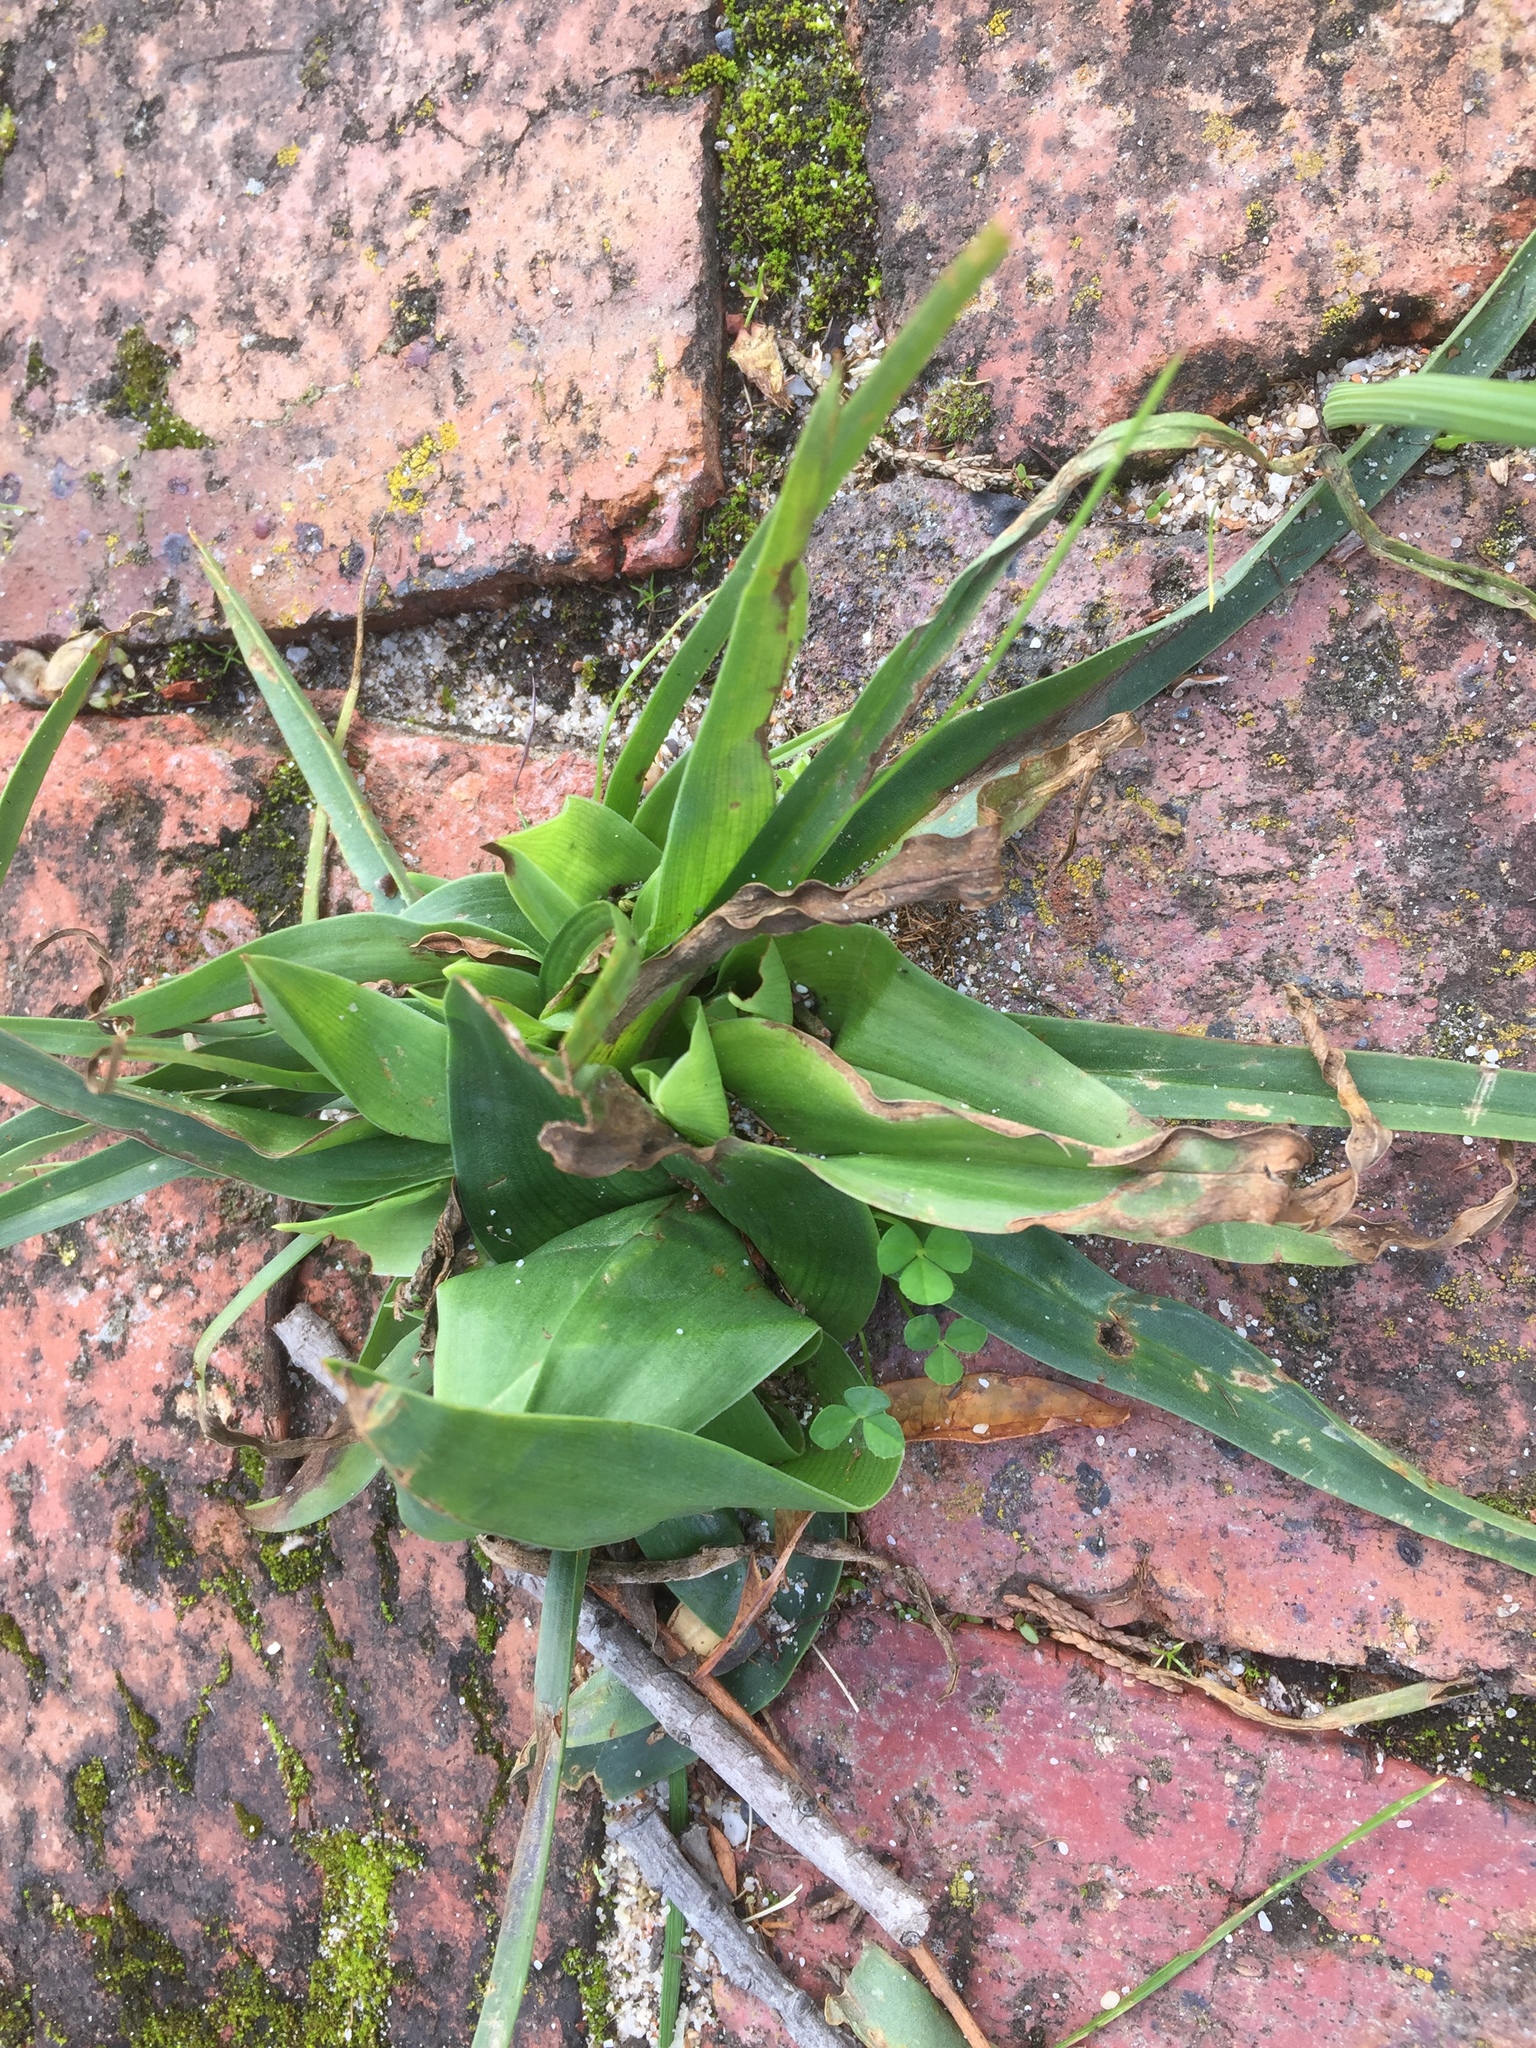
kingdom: Plantae
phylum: Tracheophyta
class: Liliopsida
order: Liliales
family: Colchicaceae
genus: Colchicum
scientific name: Colchicum eucomoides
